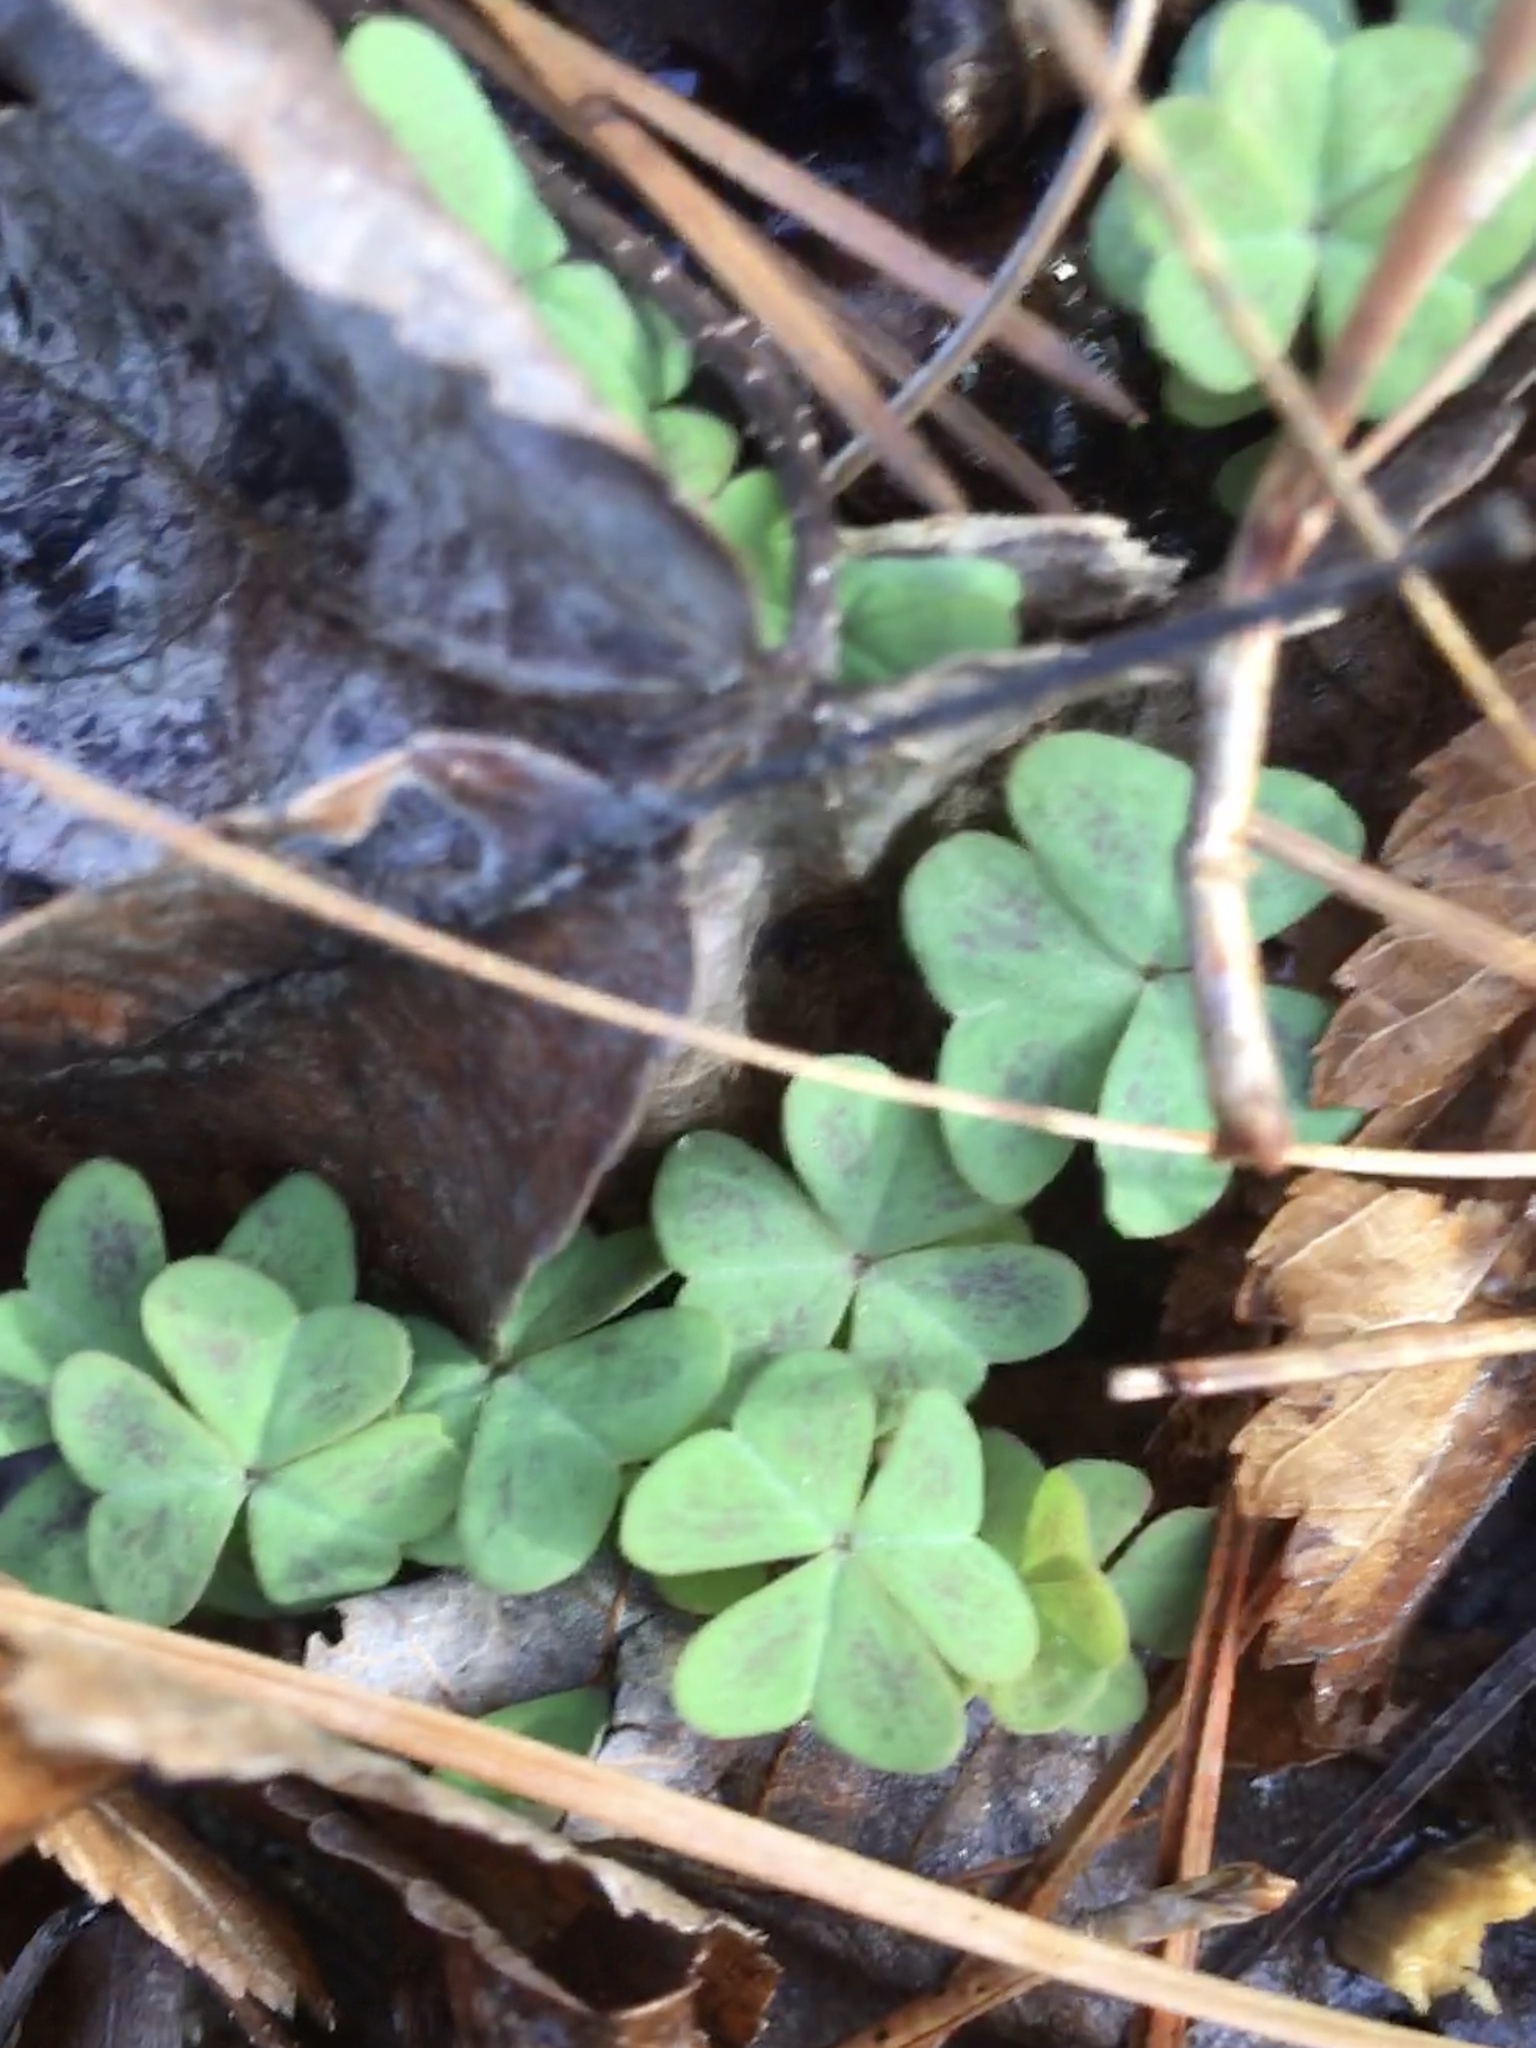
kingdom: Plantae
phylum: Tracheophyta
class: Magnoliopsida
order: Oxalidales
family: Oxalidaceae
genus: Oxalis
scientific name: Oxalis violacea
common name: Violet wood-sorrel
